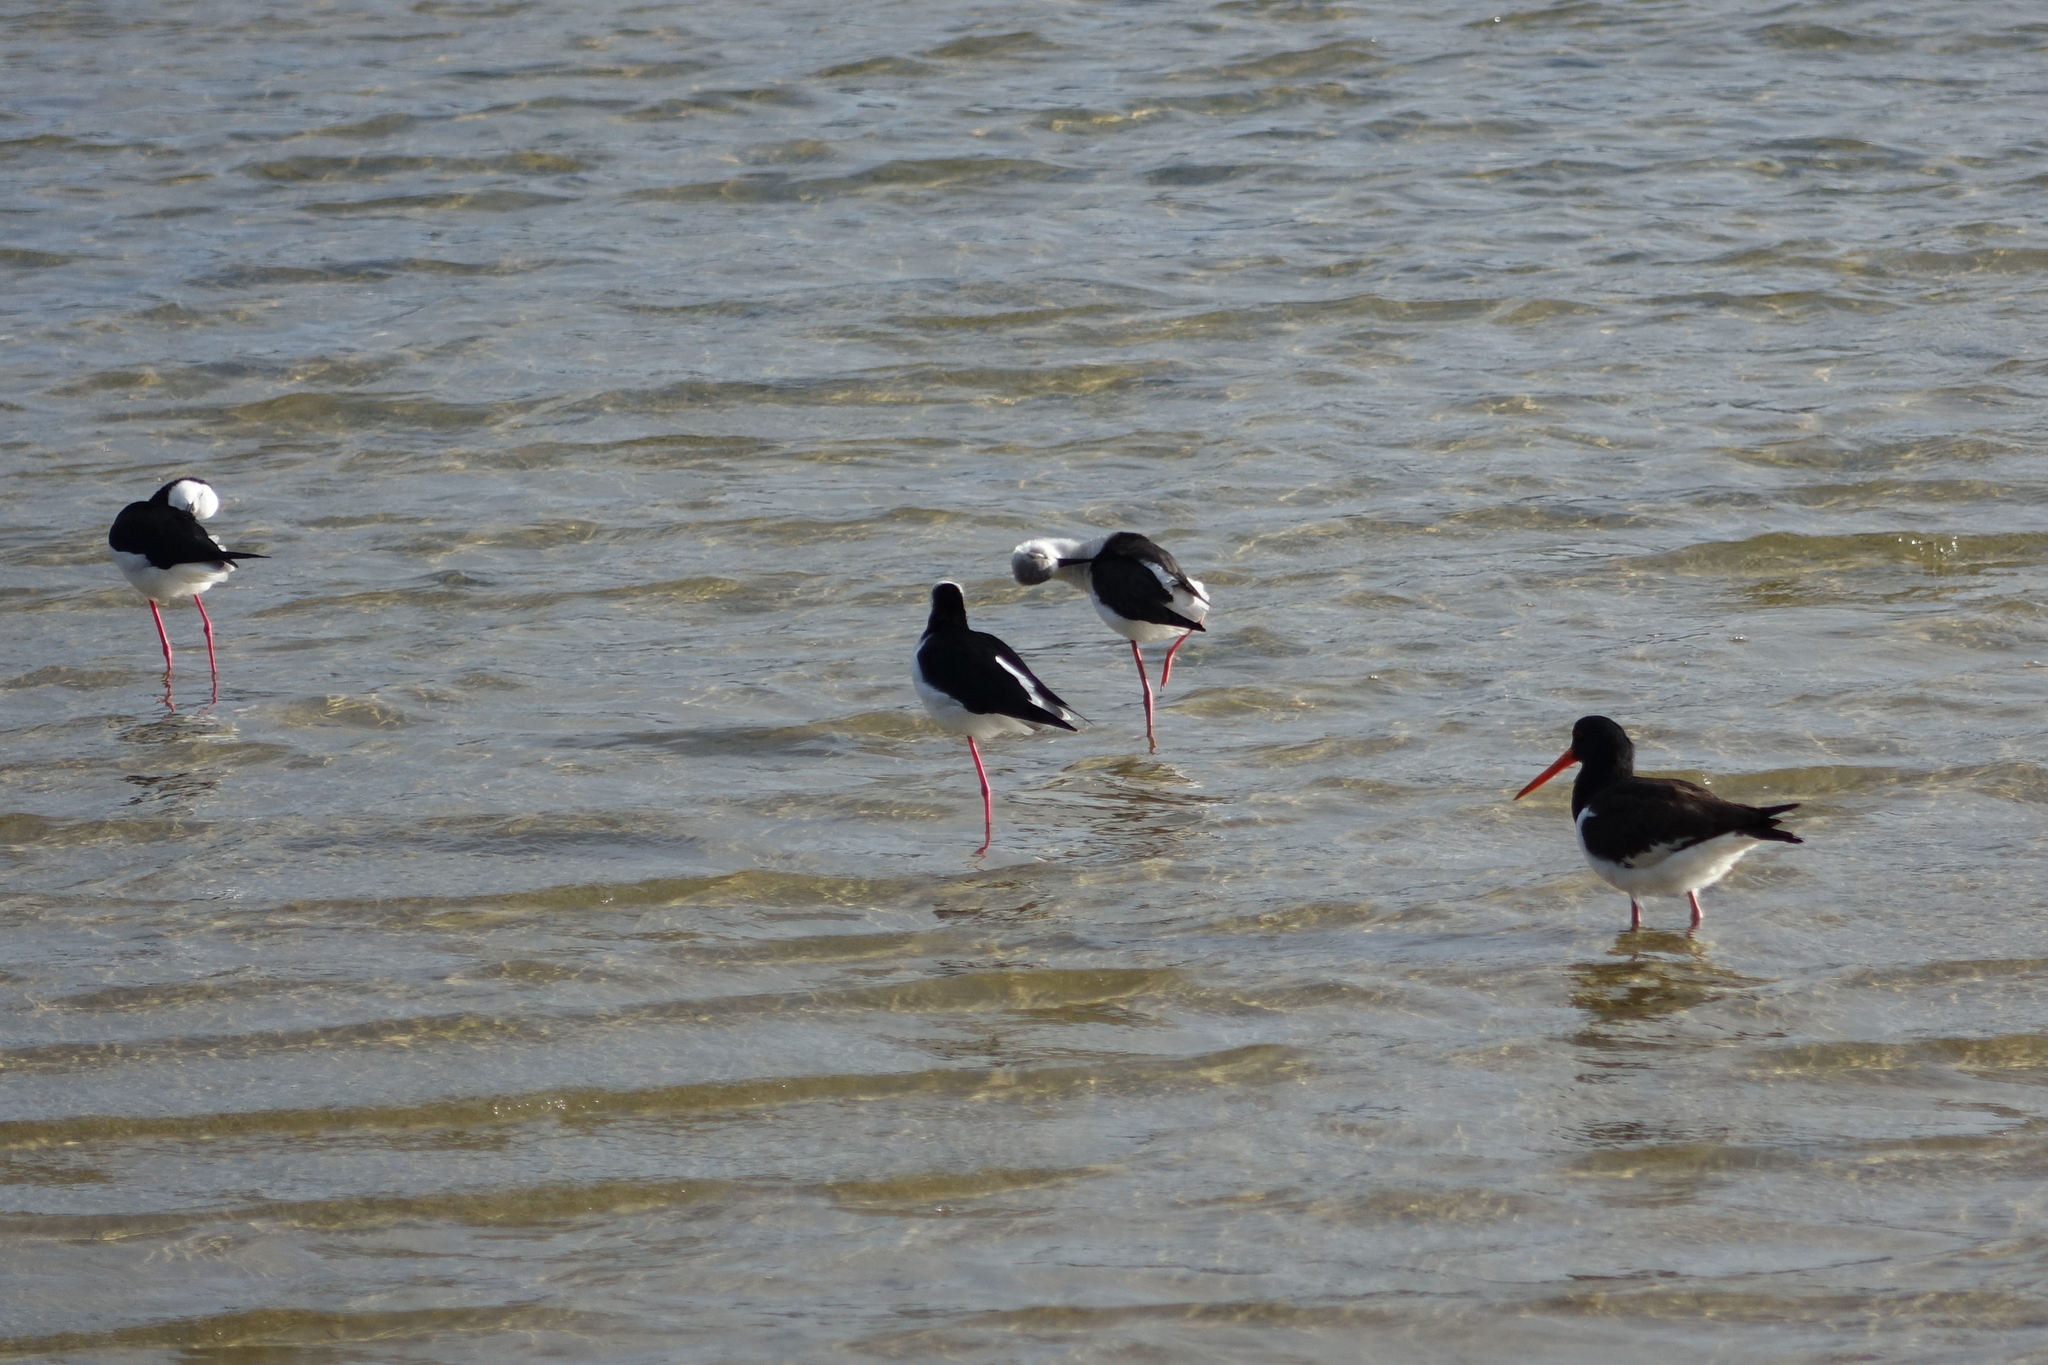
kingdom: Animalia
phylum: Chordata
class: Aves
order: Charadriiformes
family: Recurvirostridae
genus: Himantopus
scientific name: Himantopus leucocephalus
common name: White-headed stilt
